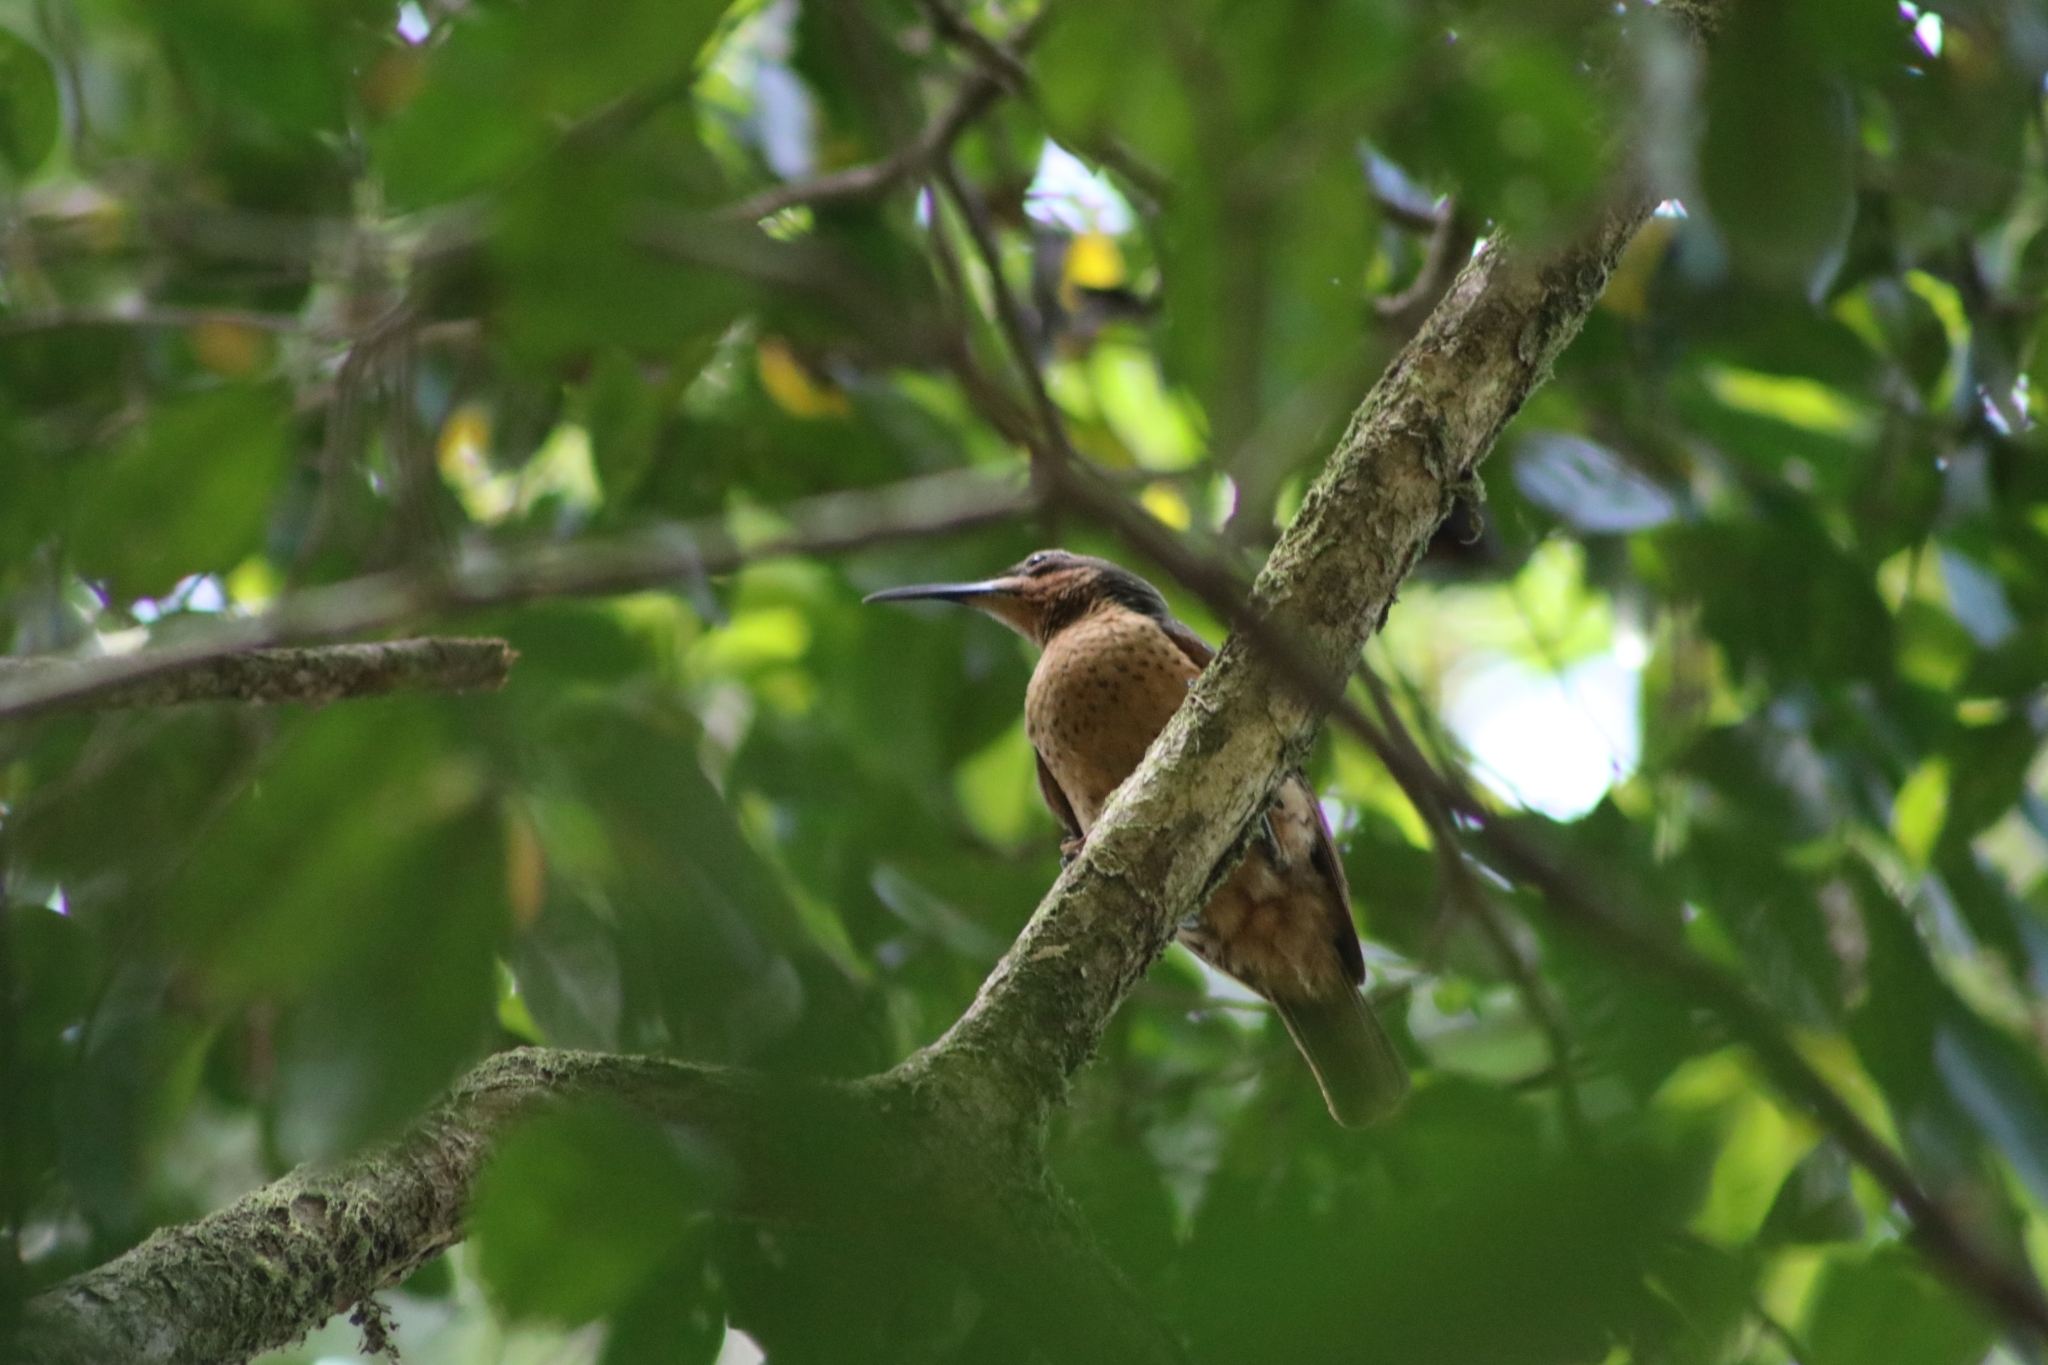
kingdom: Animalia
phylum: Chordata
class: Aves
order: Passeriformes
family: Paradisaeidae
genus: Ptiloris
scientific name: Ptiloris victoriae
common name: Victoria's riflebird
